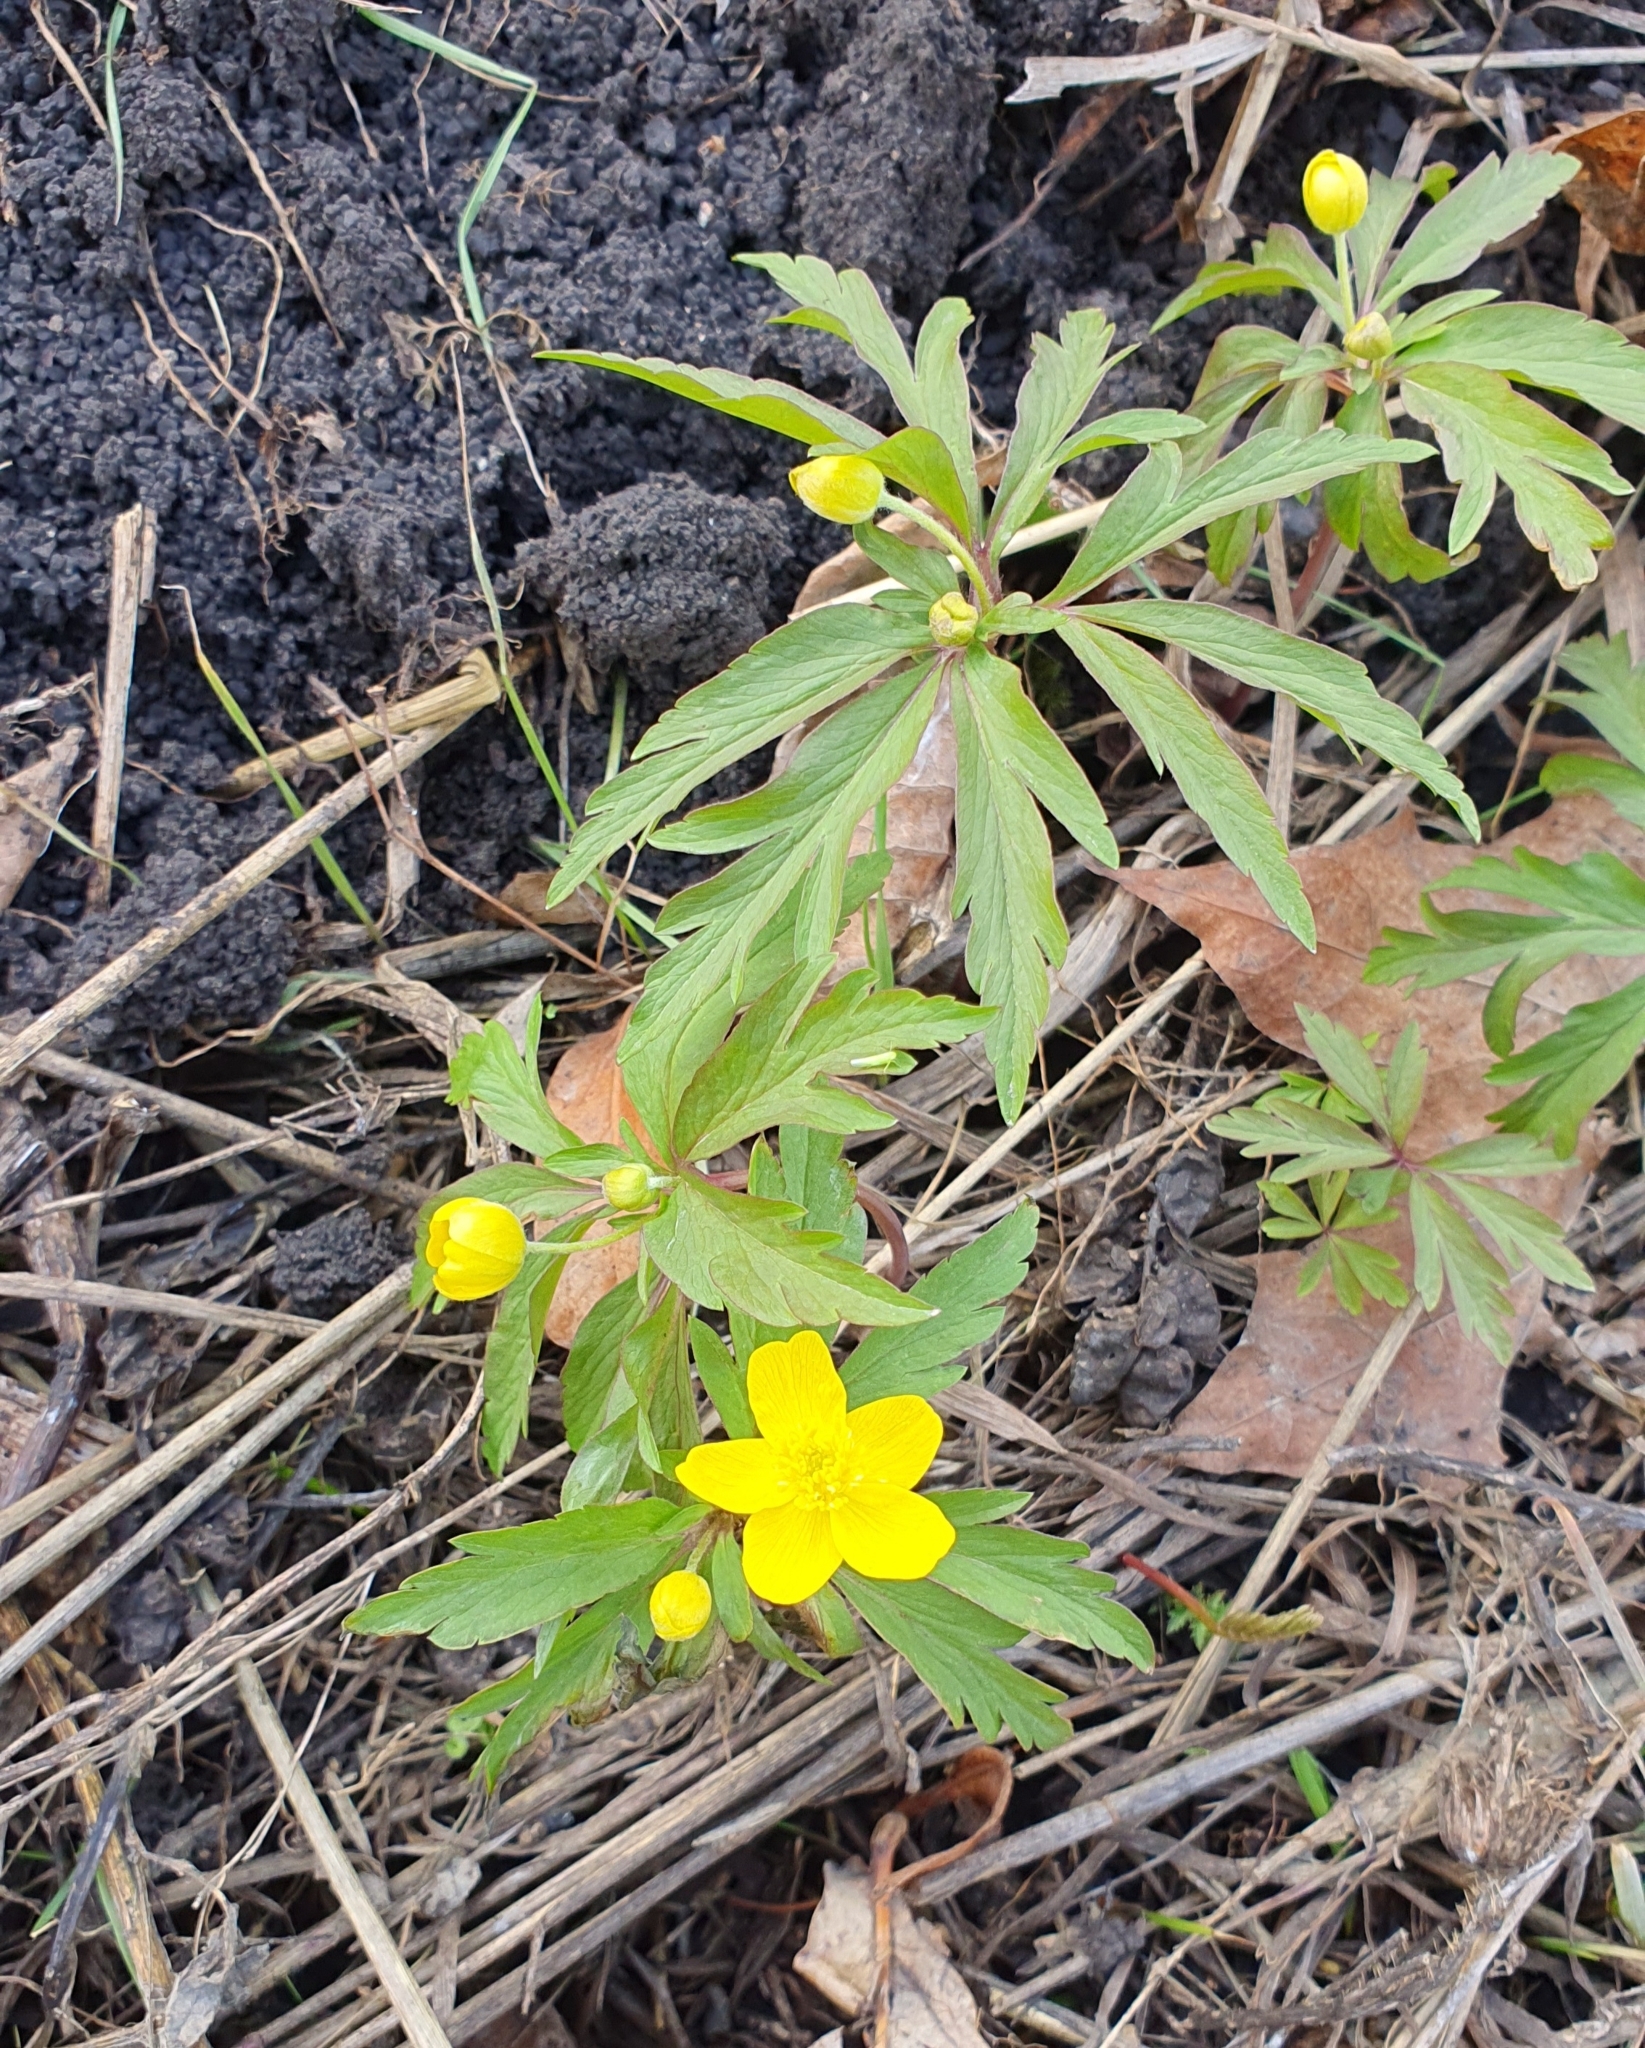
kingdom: Plantae
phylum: Tracheophyta
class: Magnoliopsida
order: Ranunculales
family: Ranunculaceae
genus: Anemone
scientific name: Anemone ranunculoides
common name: Yellow anemone
